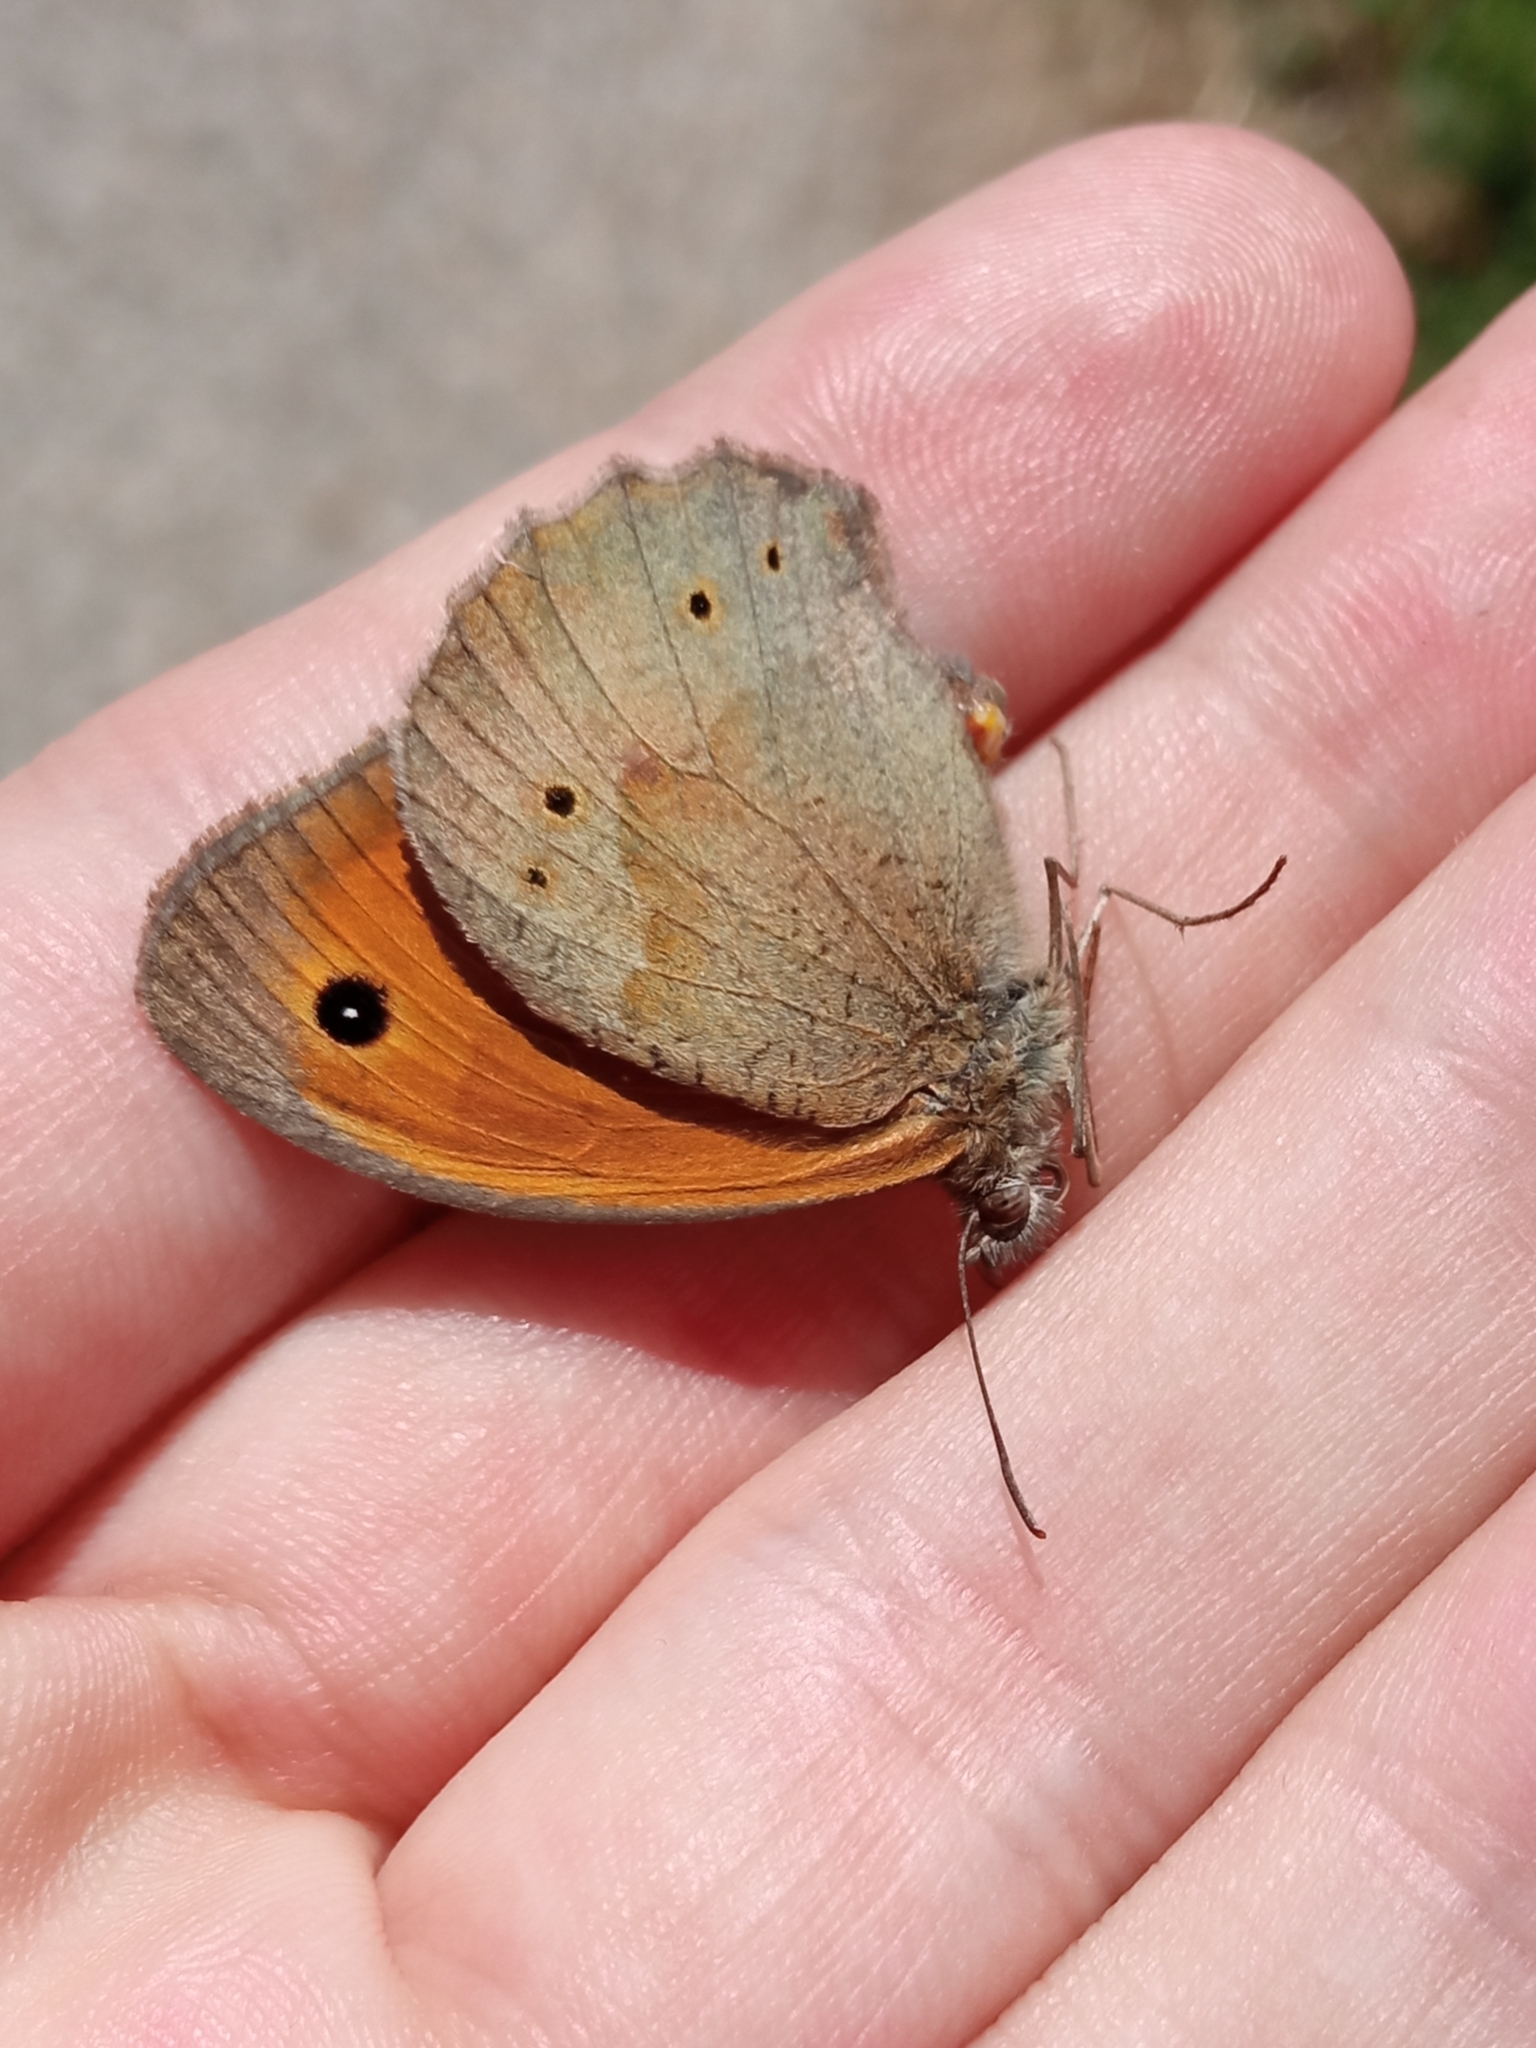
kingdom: Animalia
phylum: Arthropoda
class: Insecta
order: Lepidoptera
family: Nymphalidae
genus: Maniola
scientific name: Maniola jurtina
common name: Meadow brown
